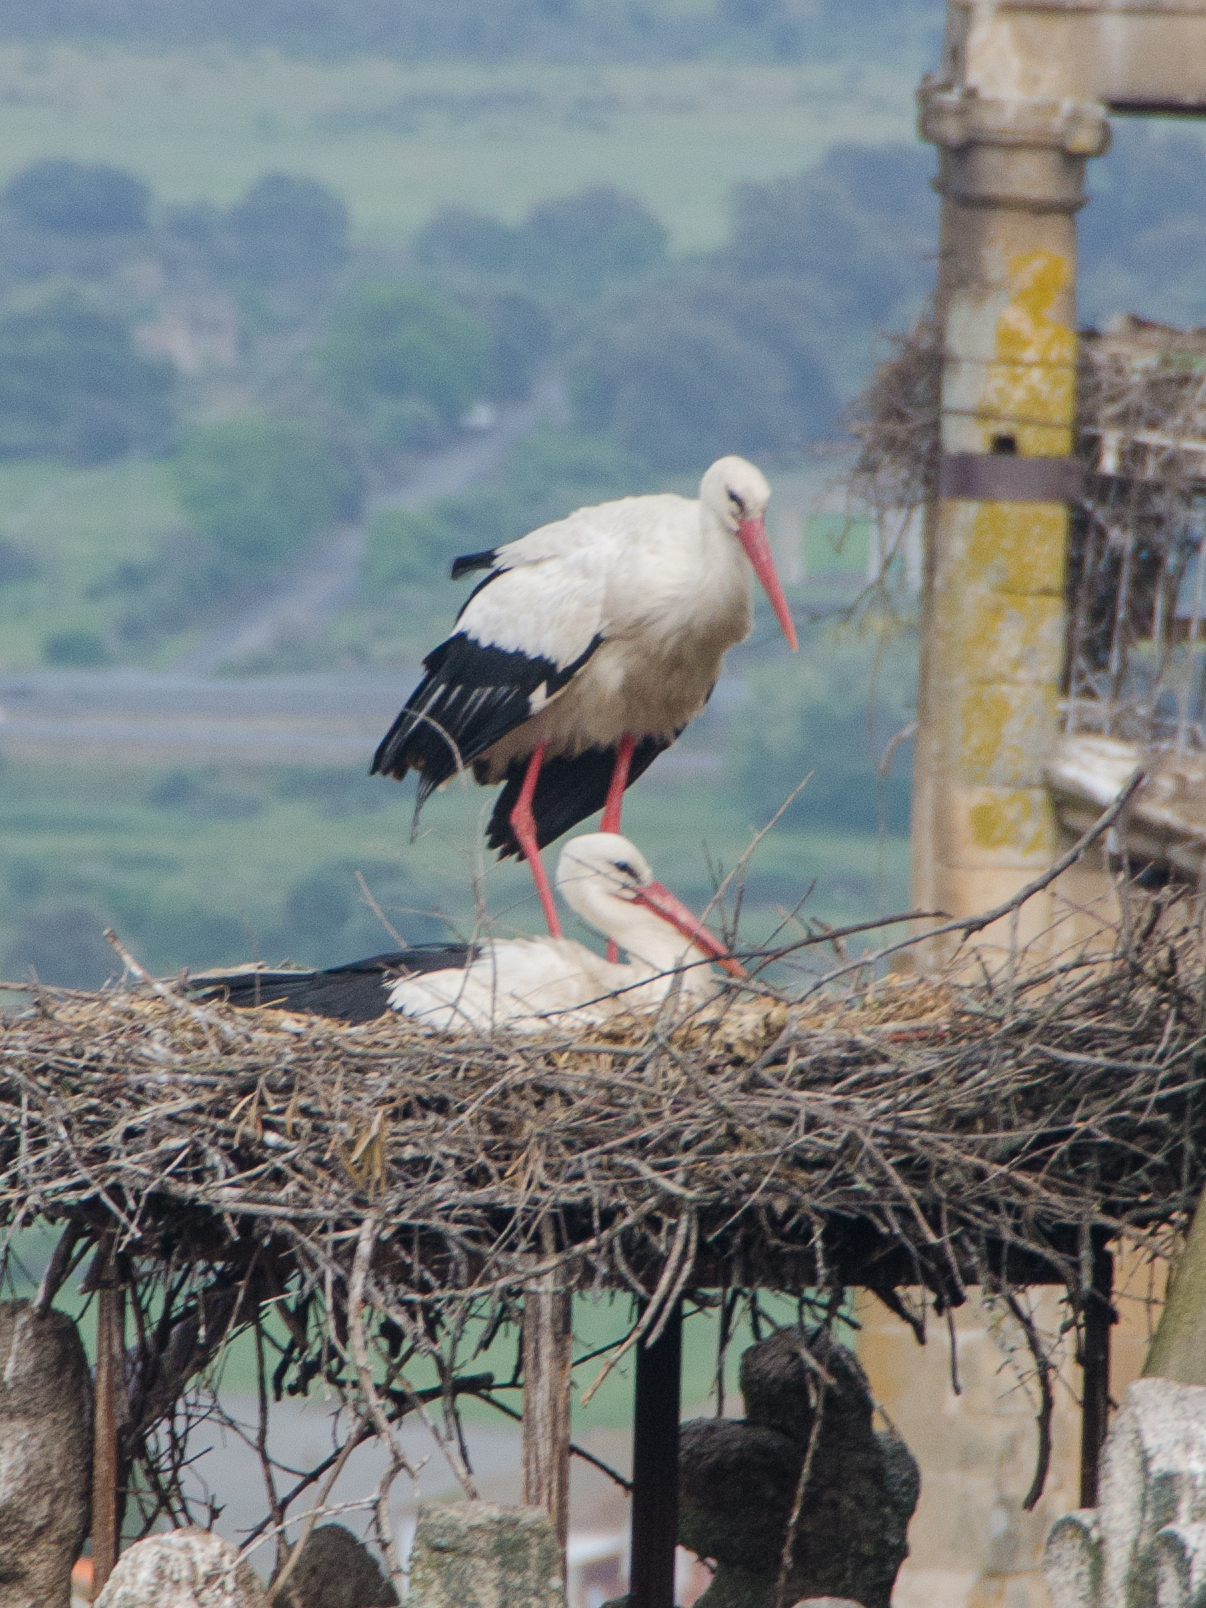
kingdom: Animalia
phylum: Chordata
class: Aves
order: Ciconiiformes
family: Ciconiidae
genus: Ciconia
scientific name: Ciconia ciconia
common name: White stork
